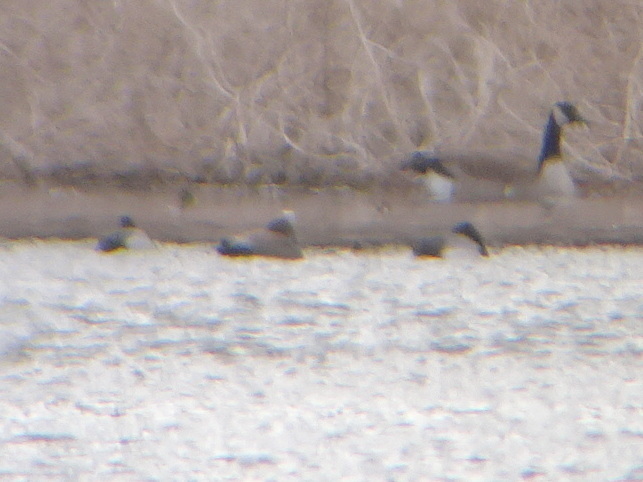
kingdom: Animalia
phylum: Chordata
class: Aves
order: Anseriformes
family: Anatidae
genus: Mareca
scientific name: Mareca strepera
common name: Gadwall
